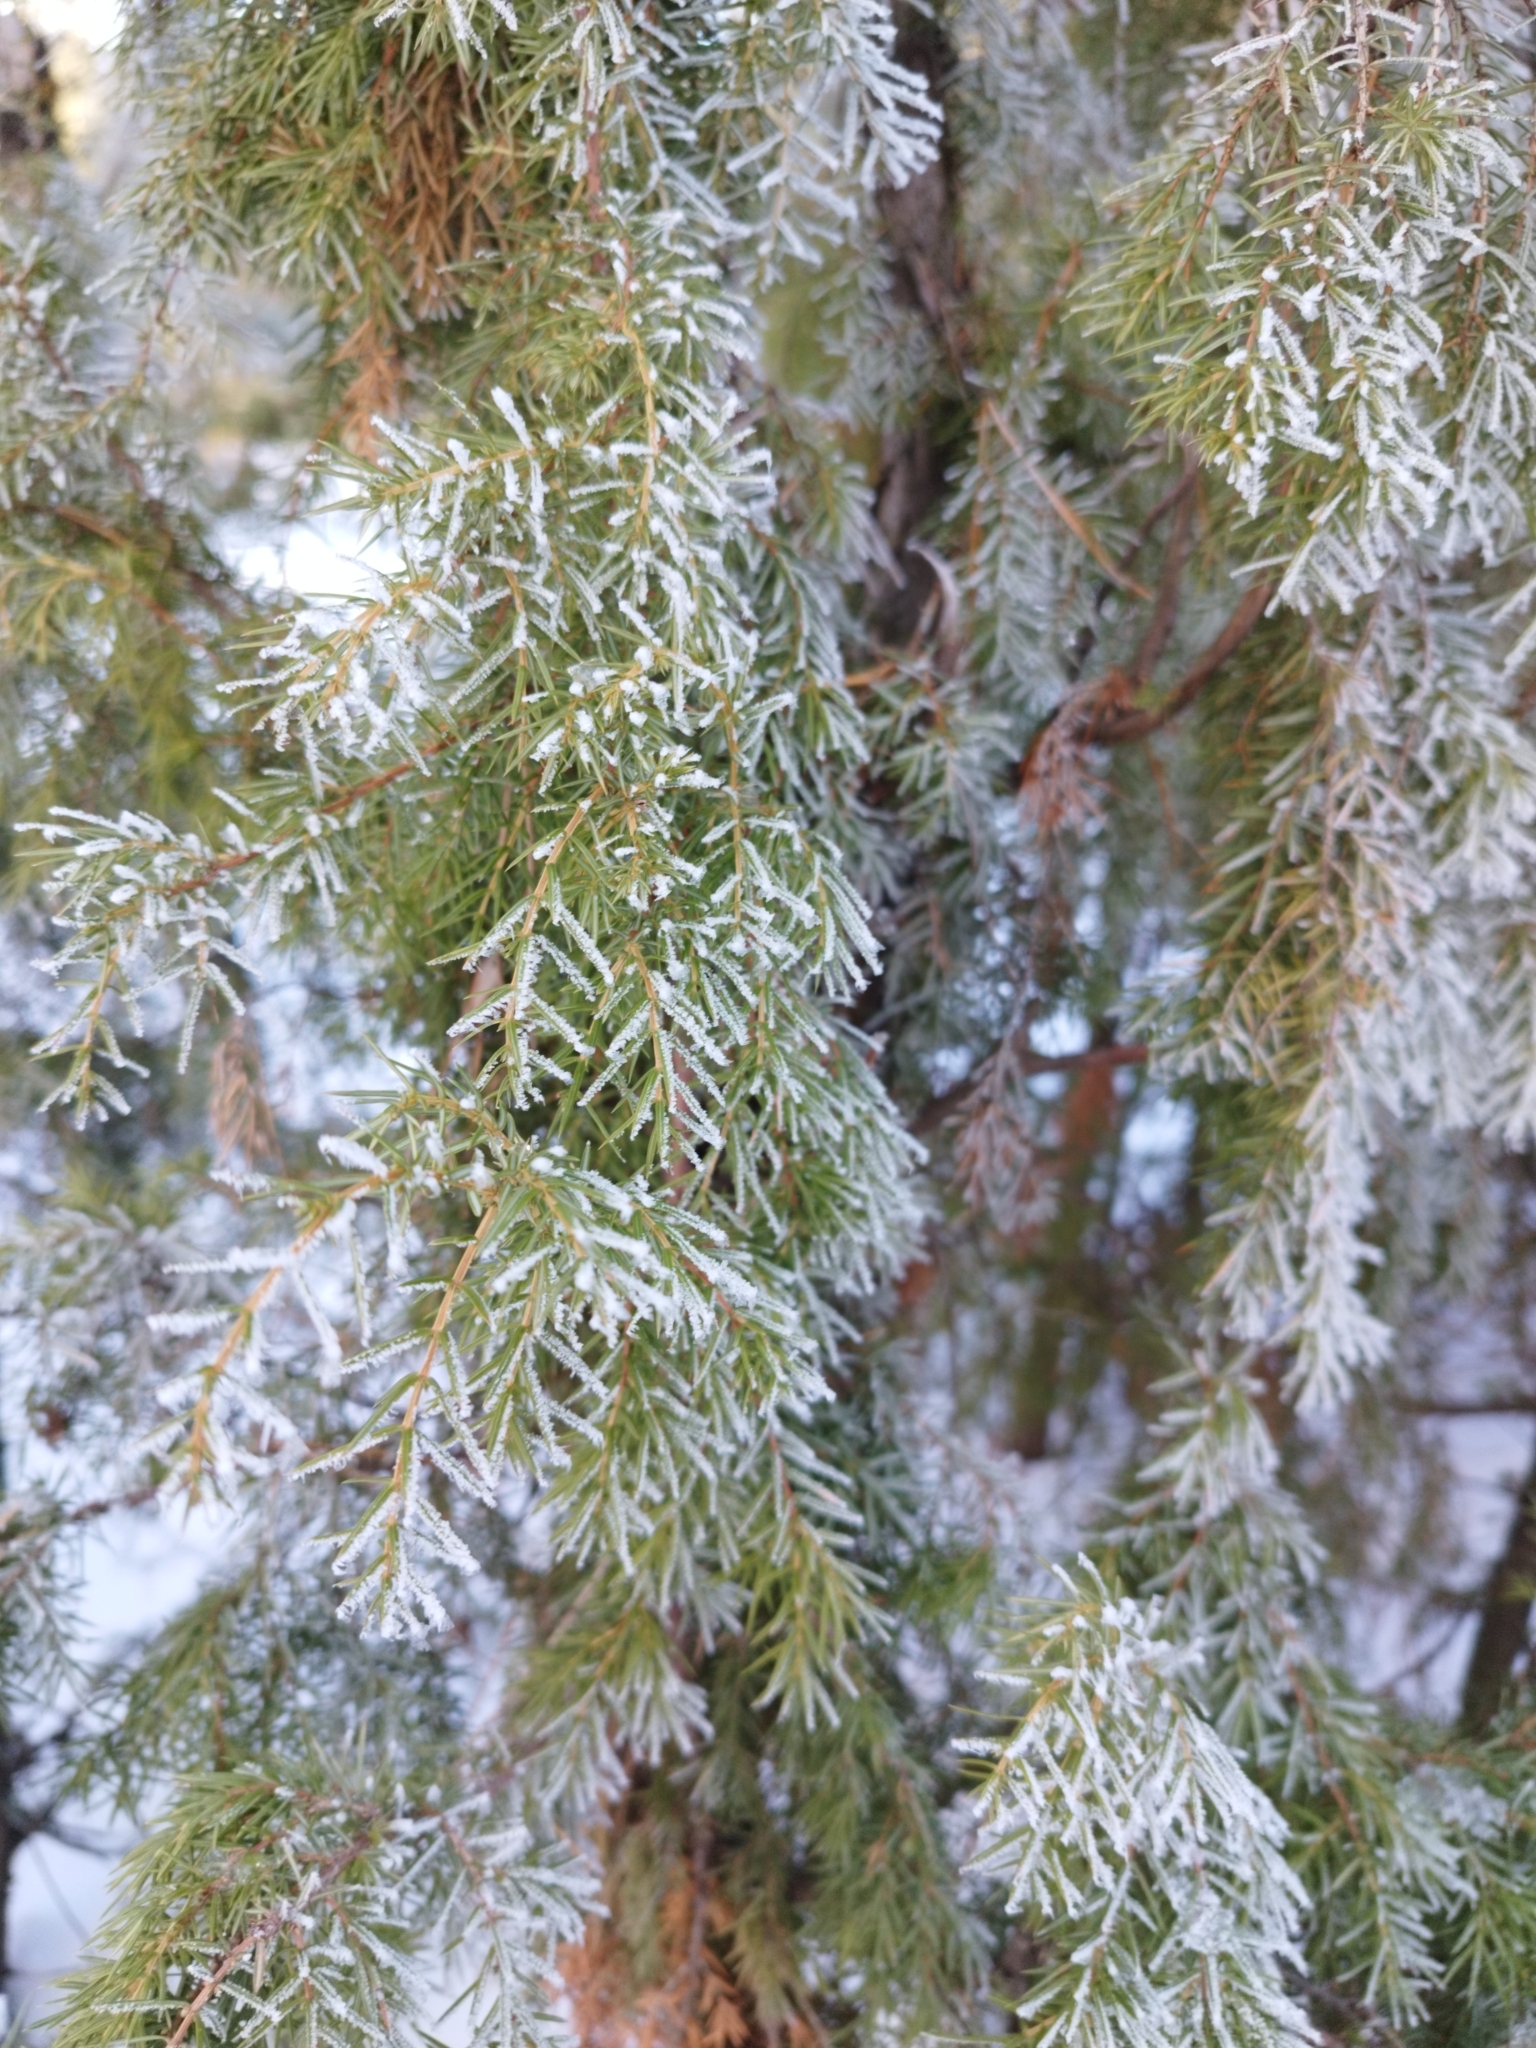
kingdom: Plantae
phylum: Tracheophyta
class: Pinopsida
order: Pinales
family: Cupressaceae
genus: Juniperus
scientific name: Juniperus communis
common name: Common juniper
